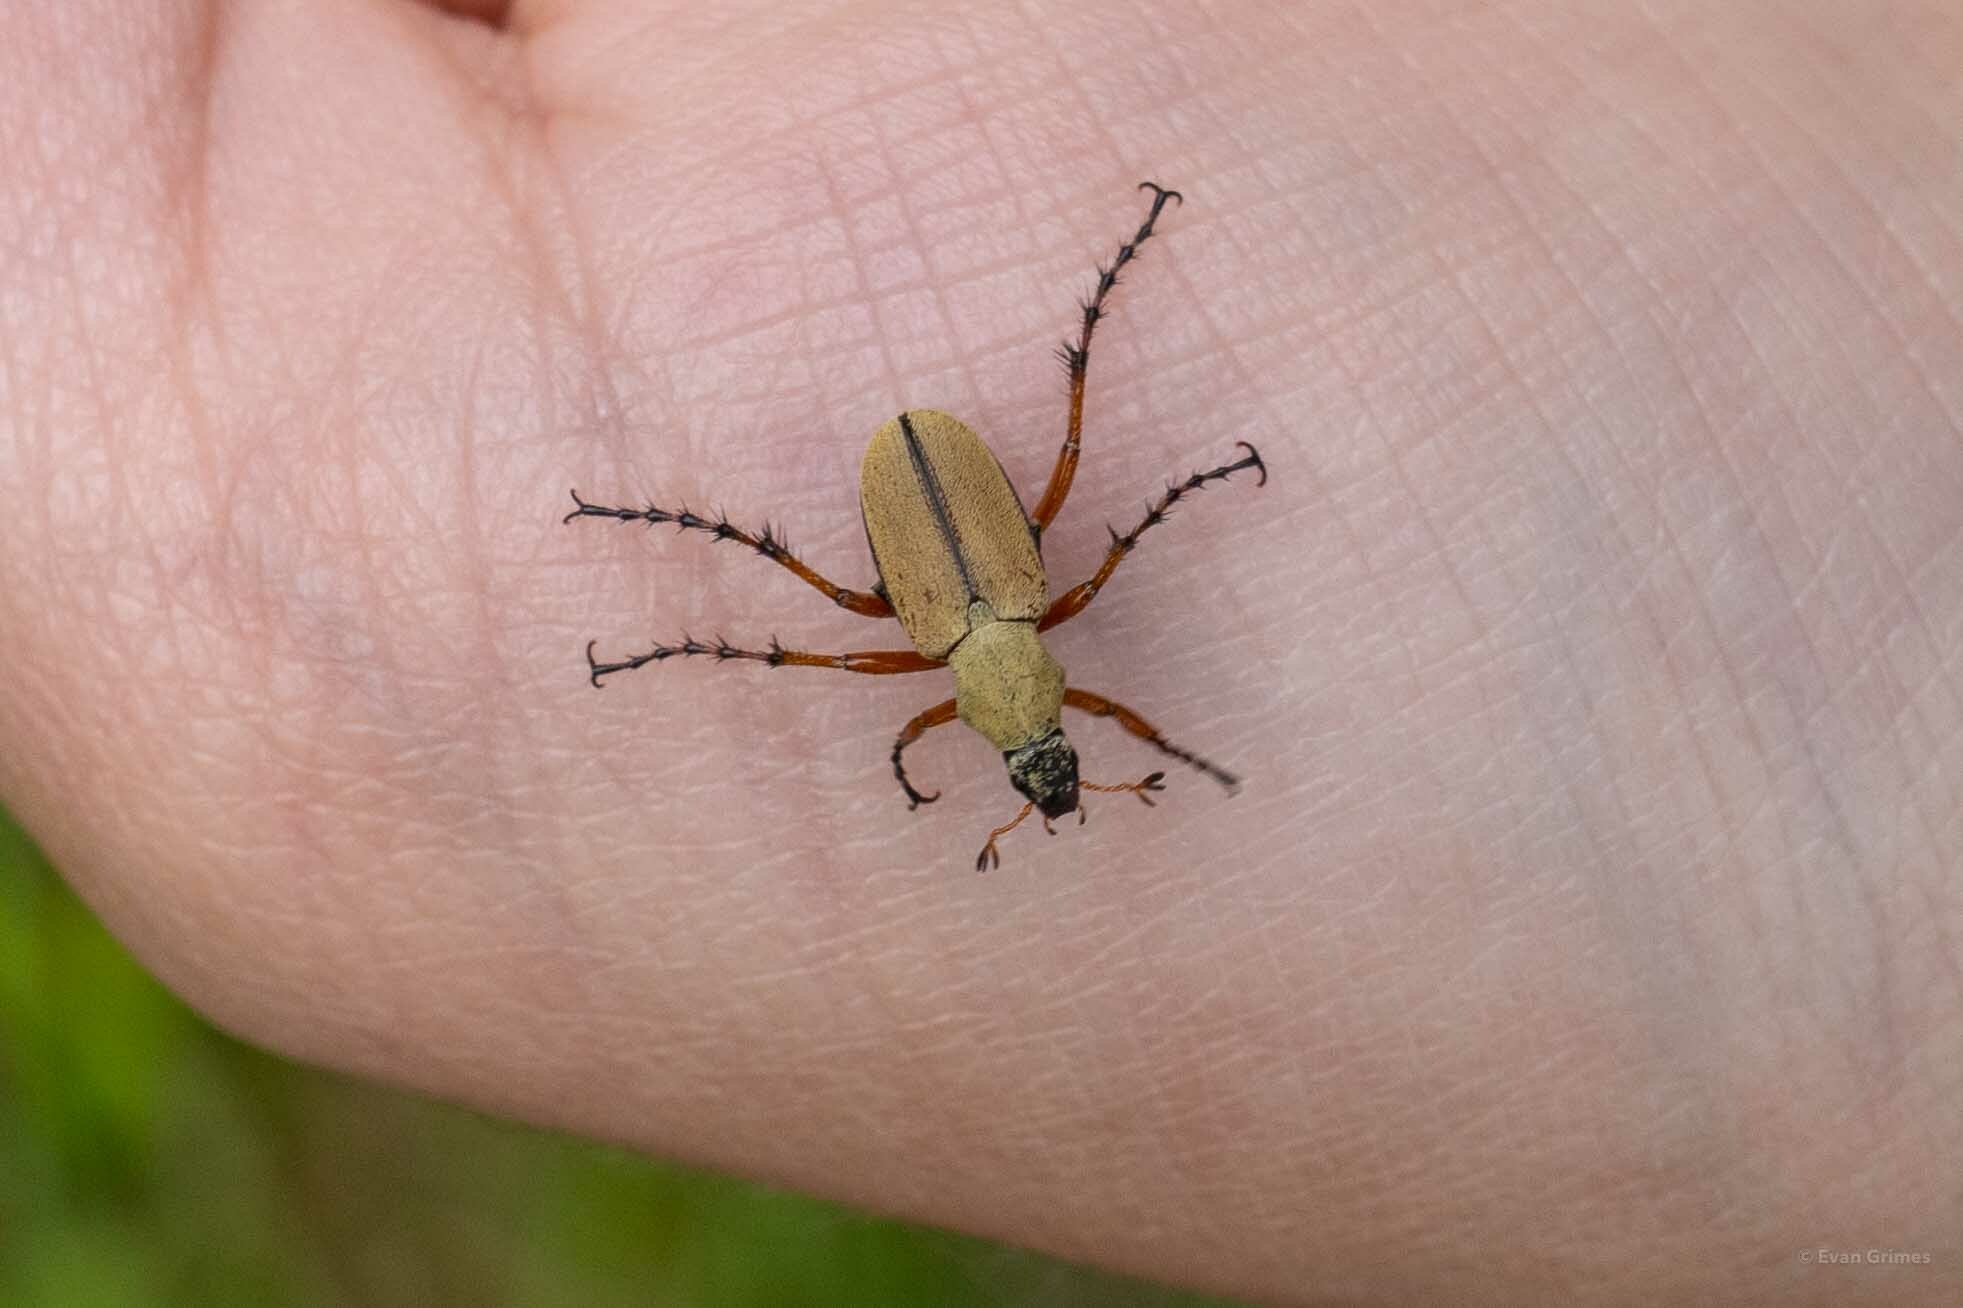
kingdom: Animalia
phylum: Arthropoda
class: Insecta
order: Coleoptera
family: Scarabaeidae
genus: Macrodactylus
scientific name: Macrodactylus subspinosus
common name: American rose chafer
